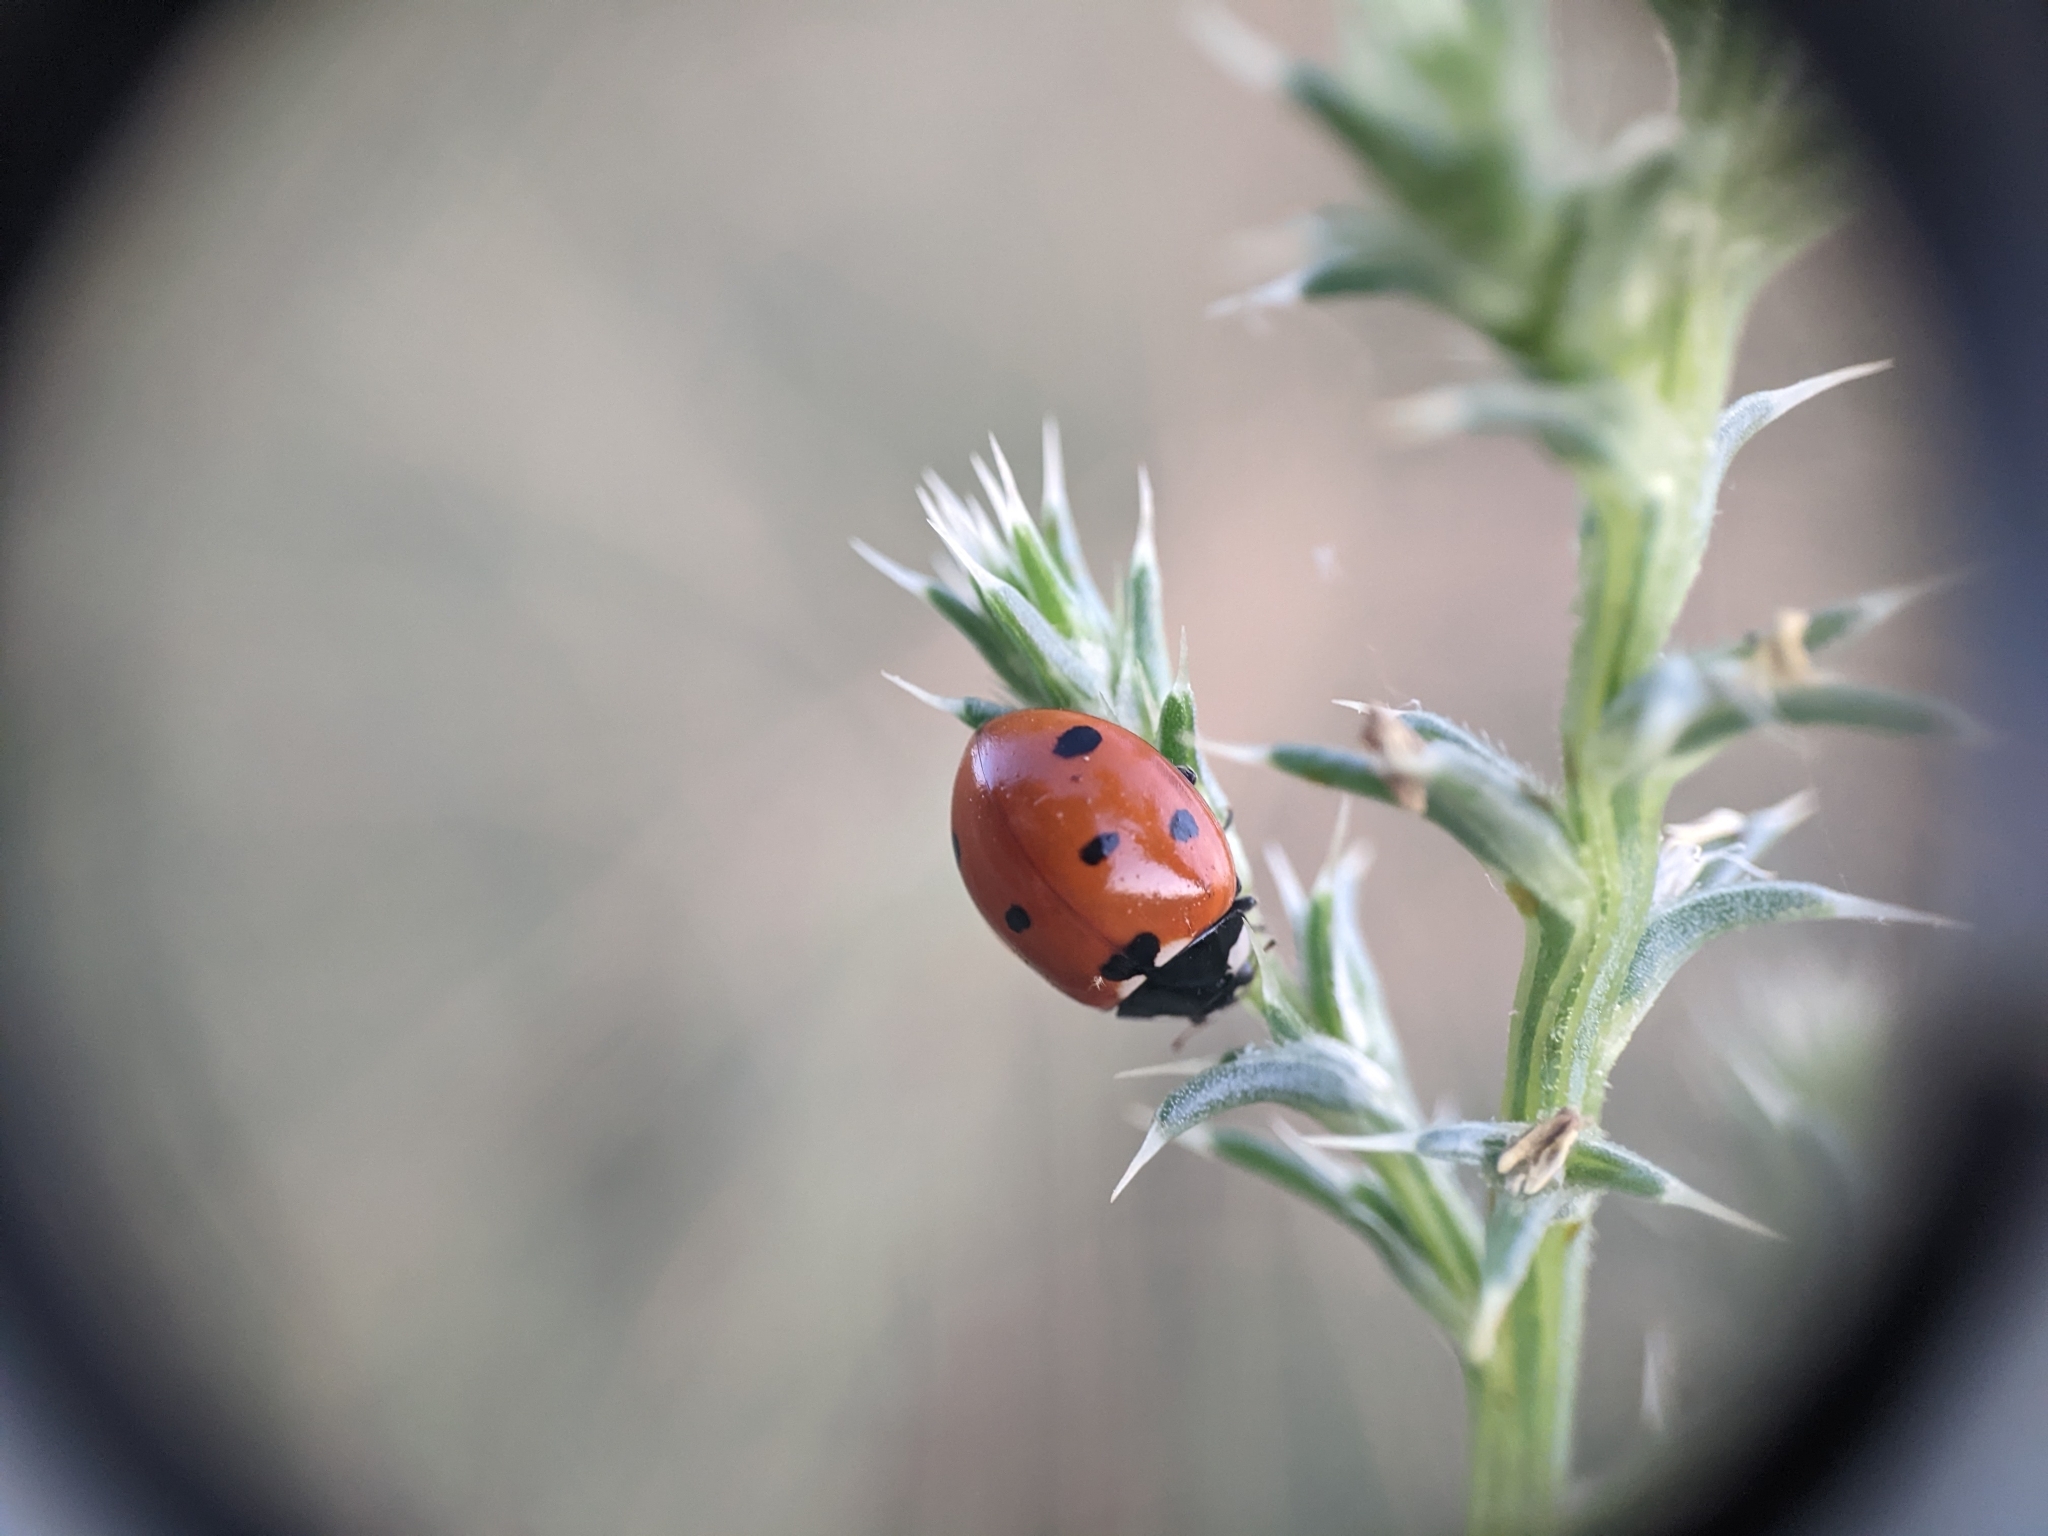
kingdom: Animalia
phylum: Arthropoda
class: Insecta
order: Coleoptera
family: Coccinellidae
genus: Coccinella
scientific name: Coccinella septempunctata
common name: Sevenspotted lady beetle
